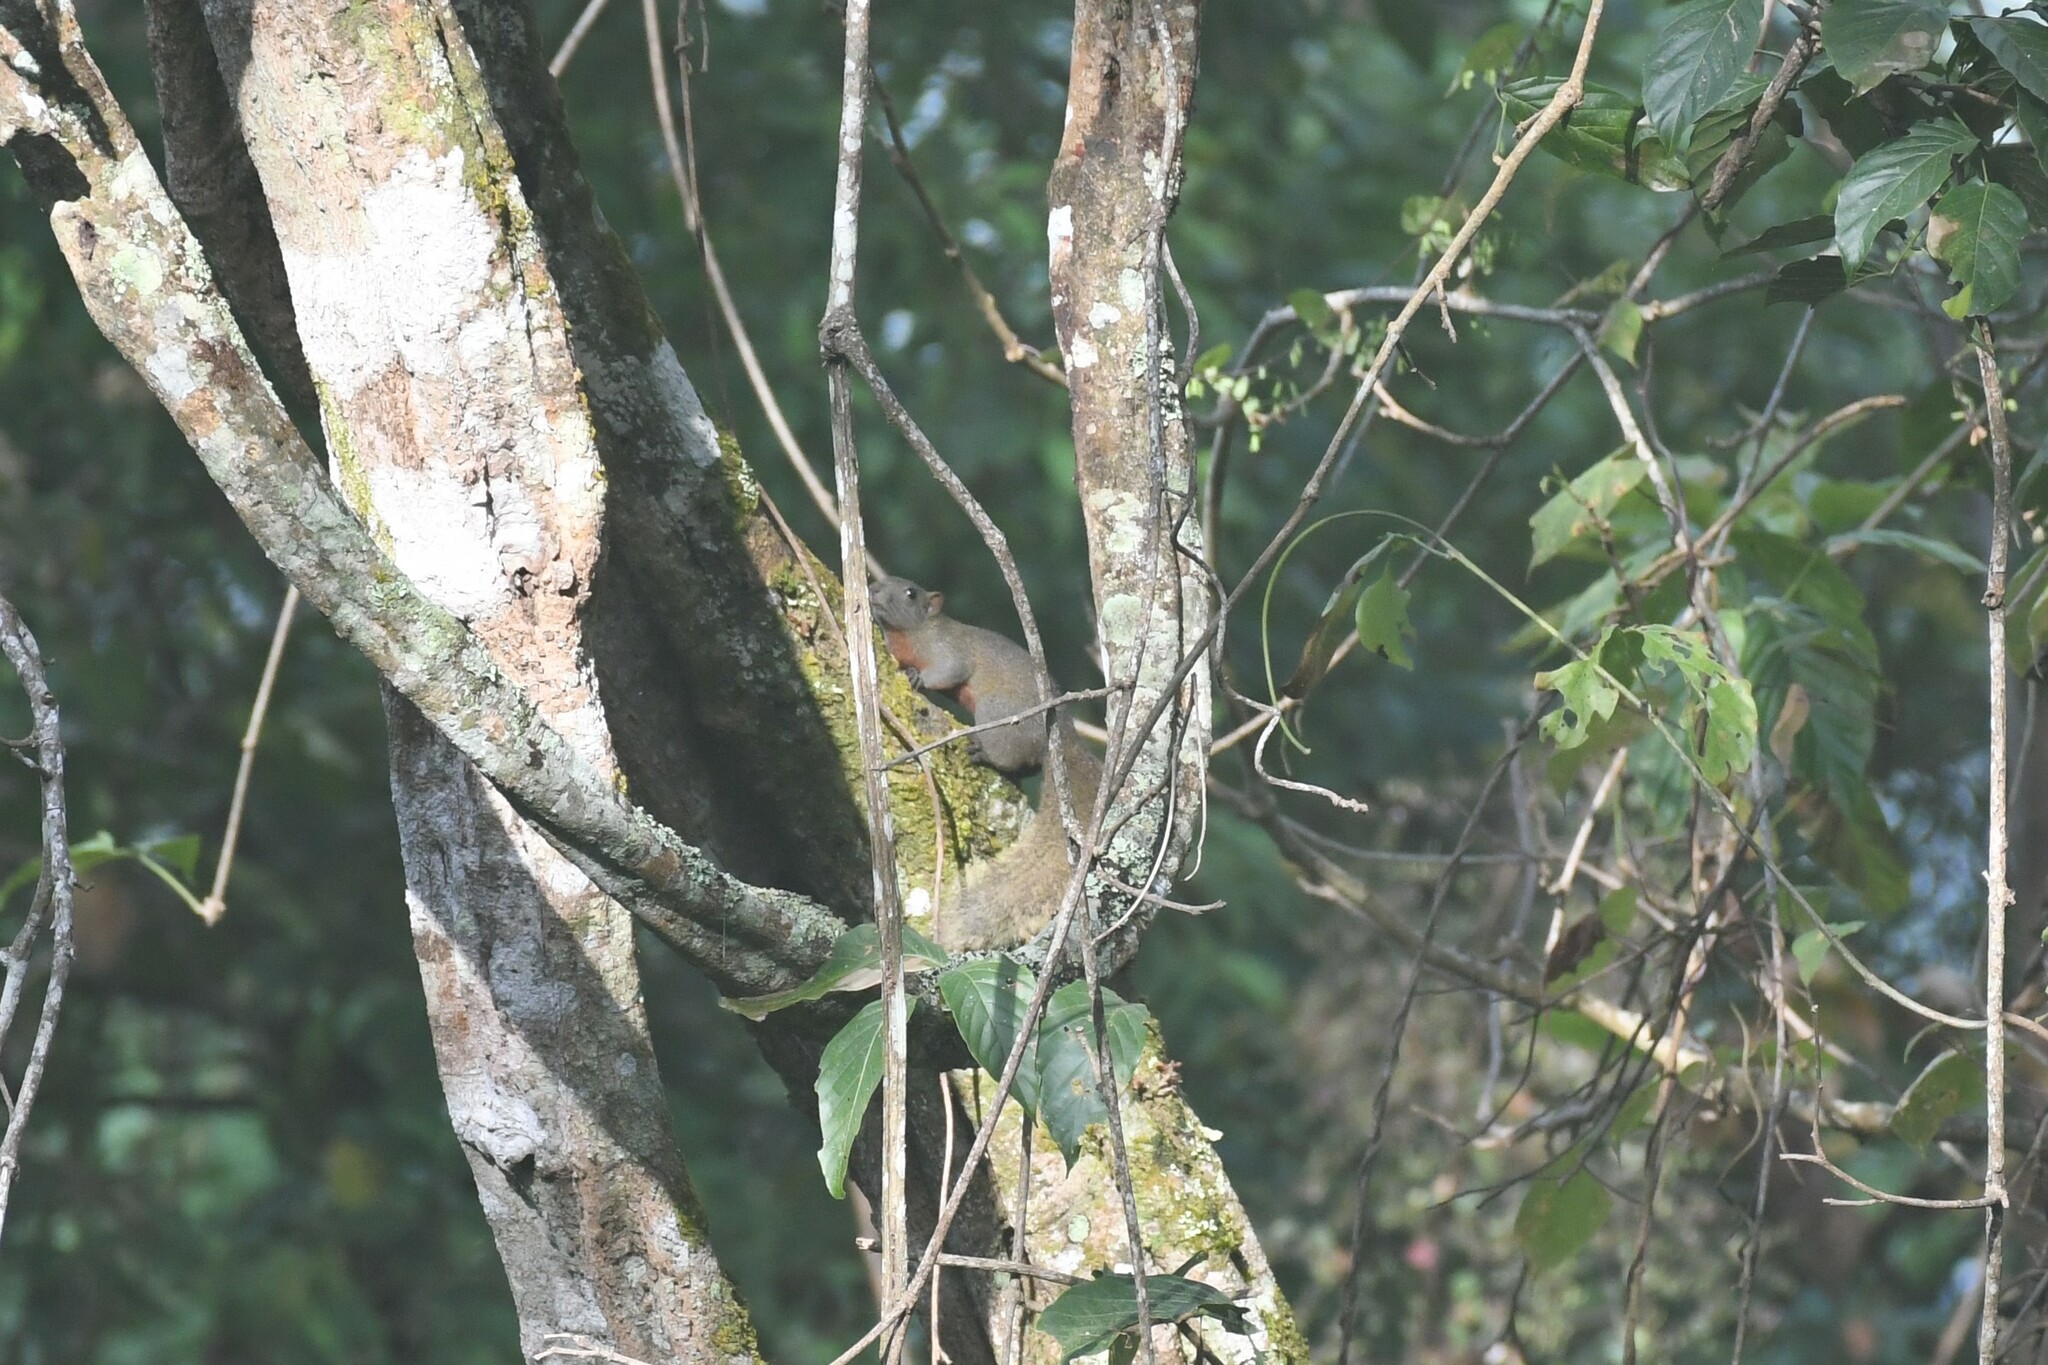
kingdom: Animalia
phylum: Chordata
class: Mammalia
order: Rodentia
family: Sciuridae
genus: Callosciurus
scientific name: Callosciurus erythraeus
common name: Pallas's squirrel
